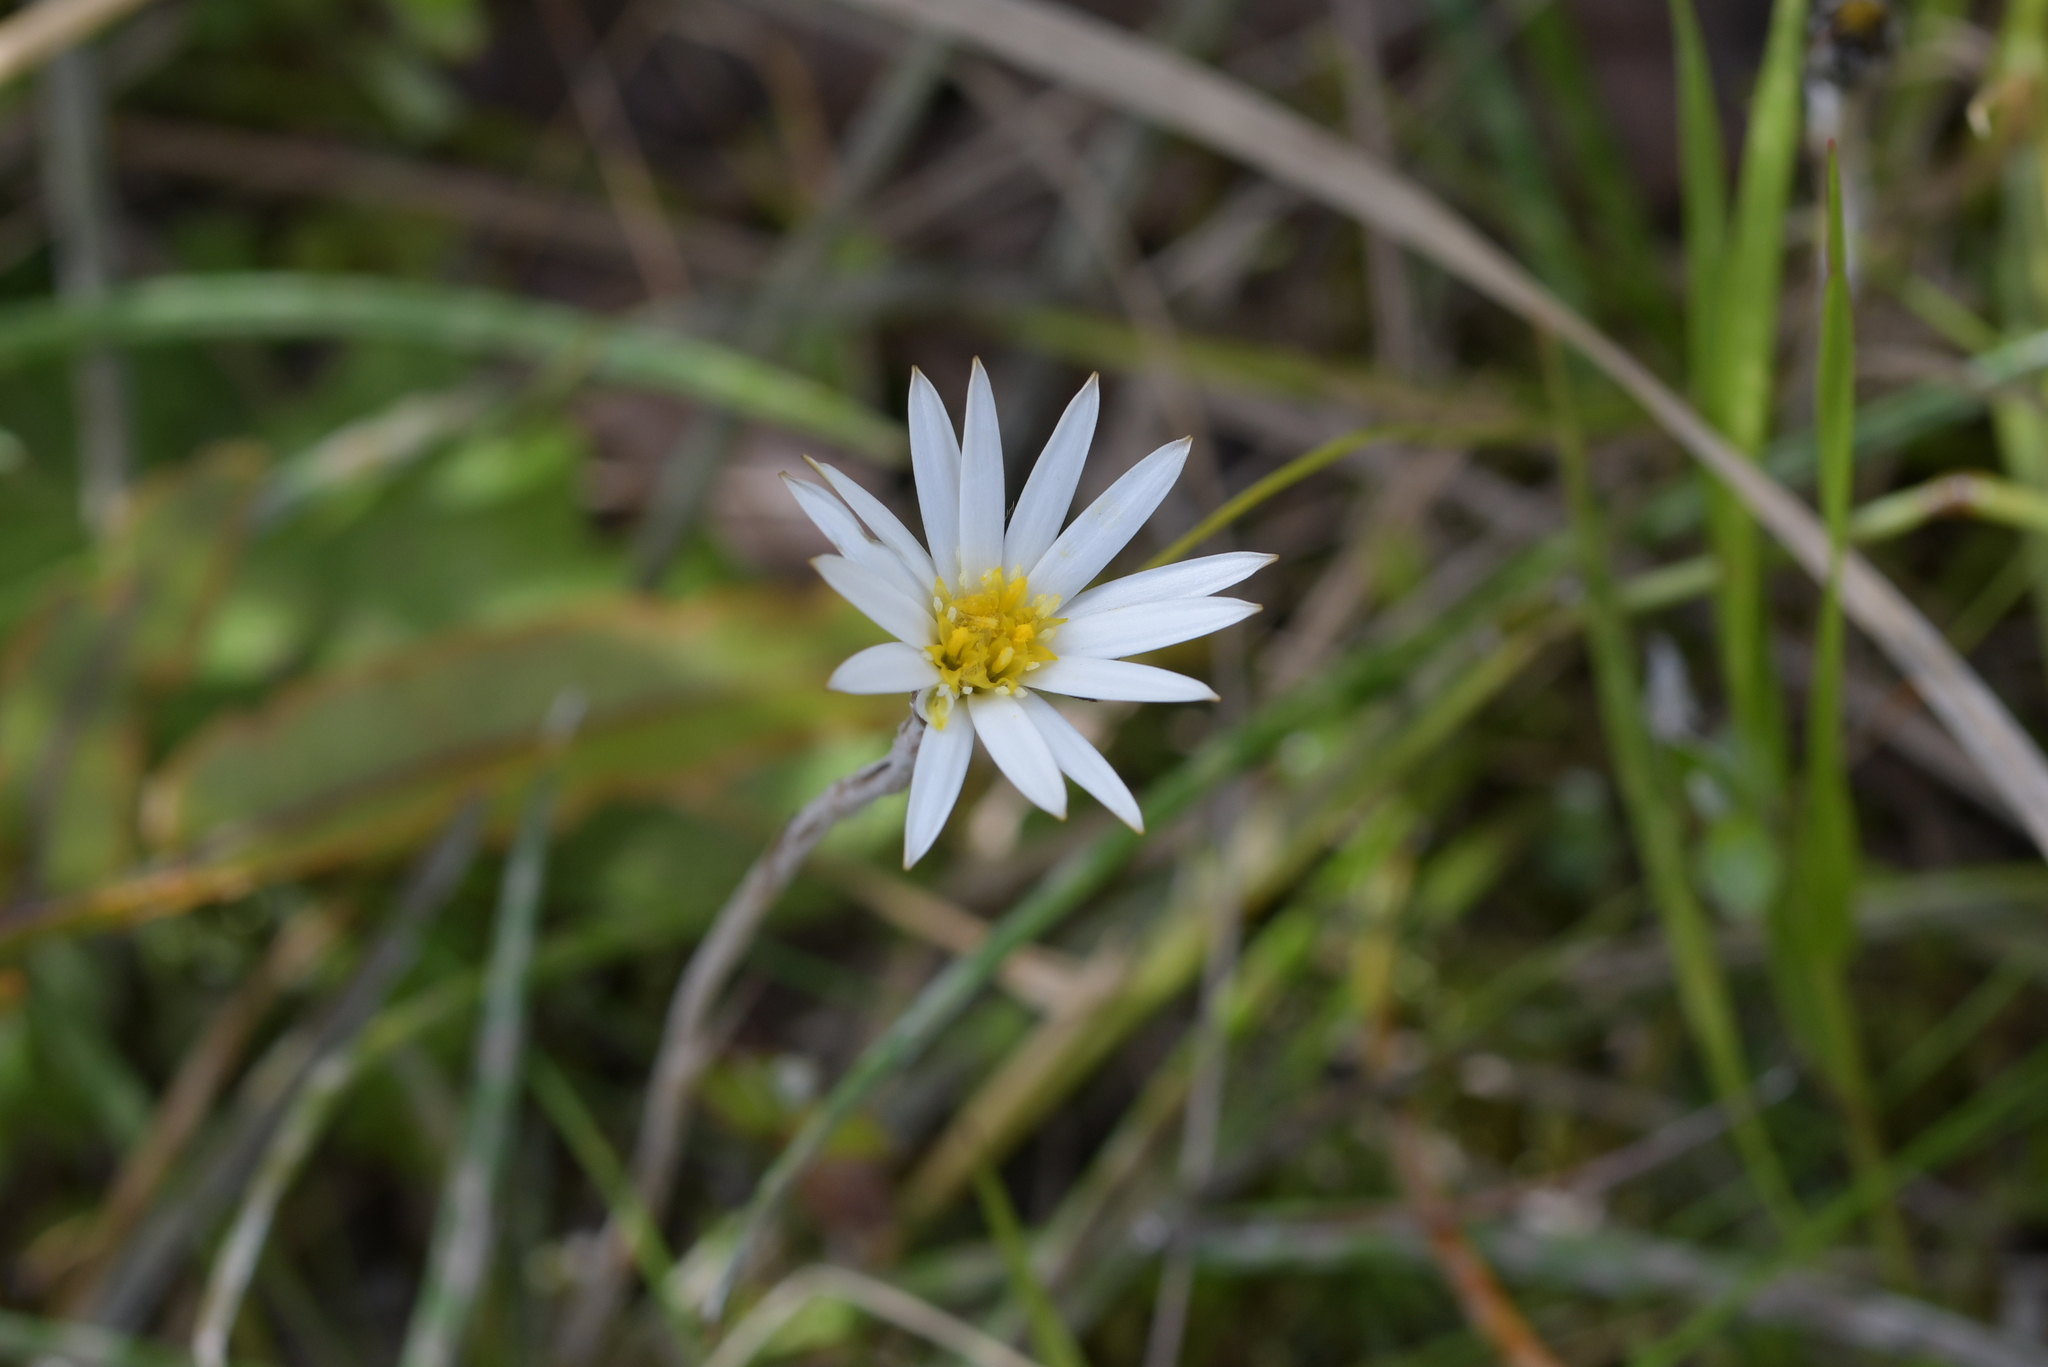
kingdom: Plantae
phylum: Tracheophyta
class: Magnoliopsida
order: Asterales
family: Asteraceae
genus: Celmisia
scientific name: Celmisia gracilenta
